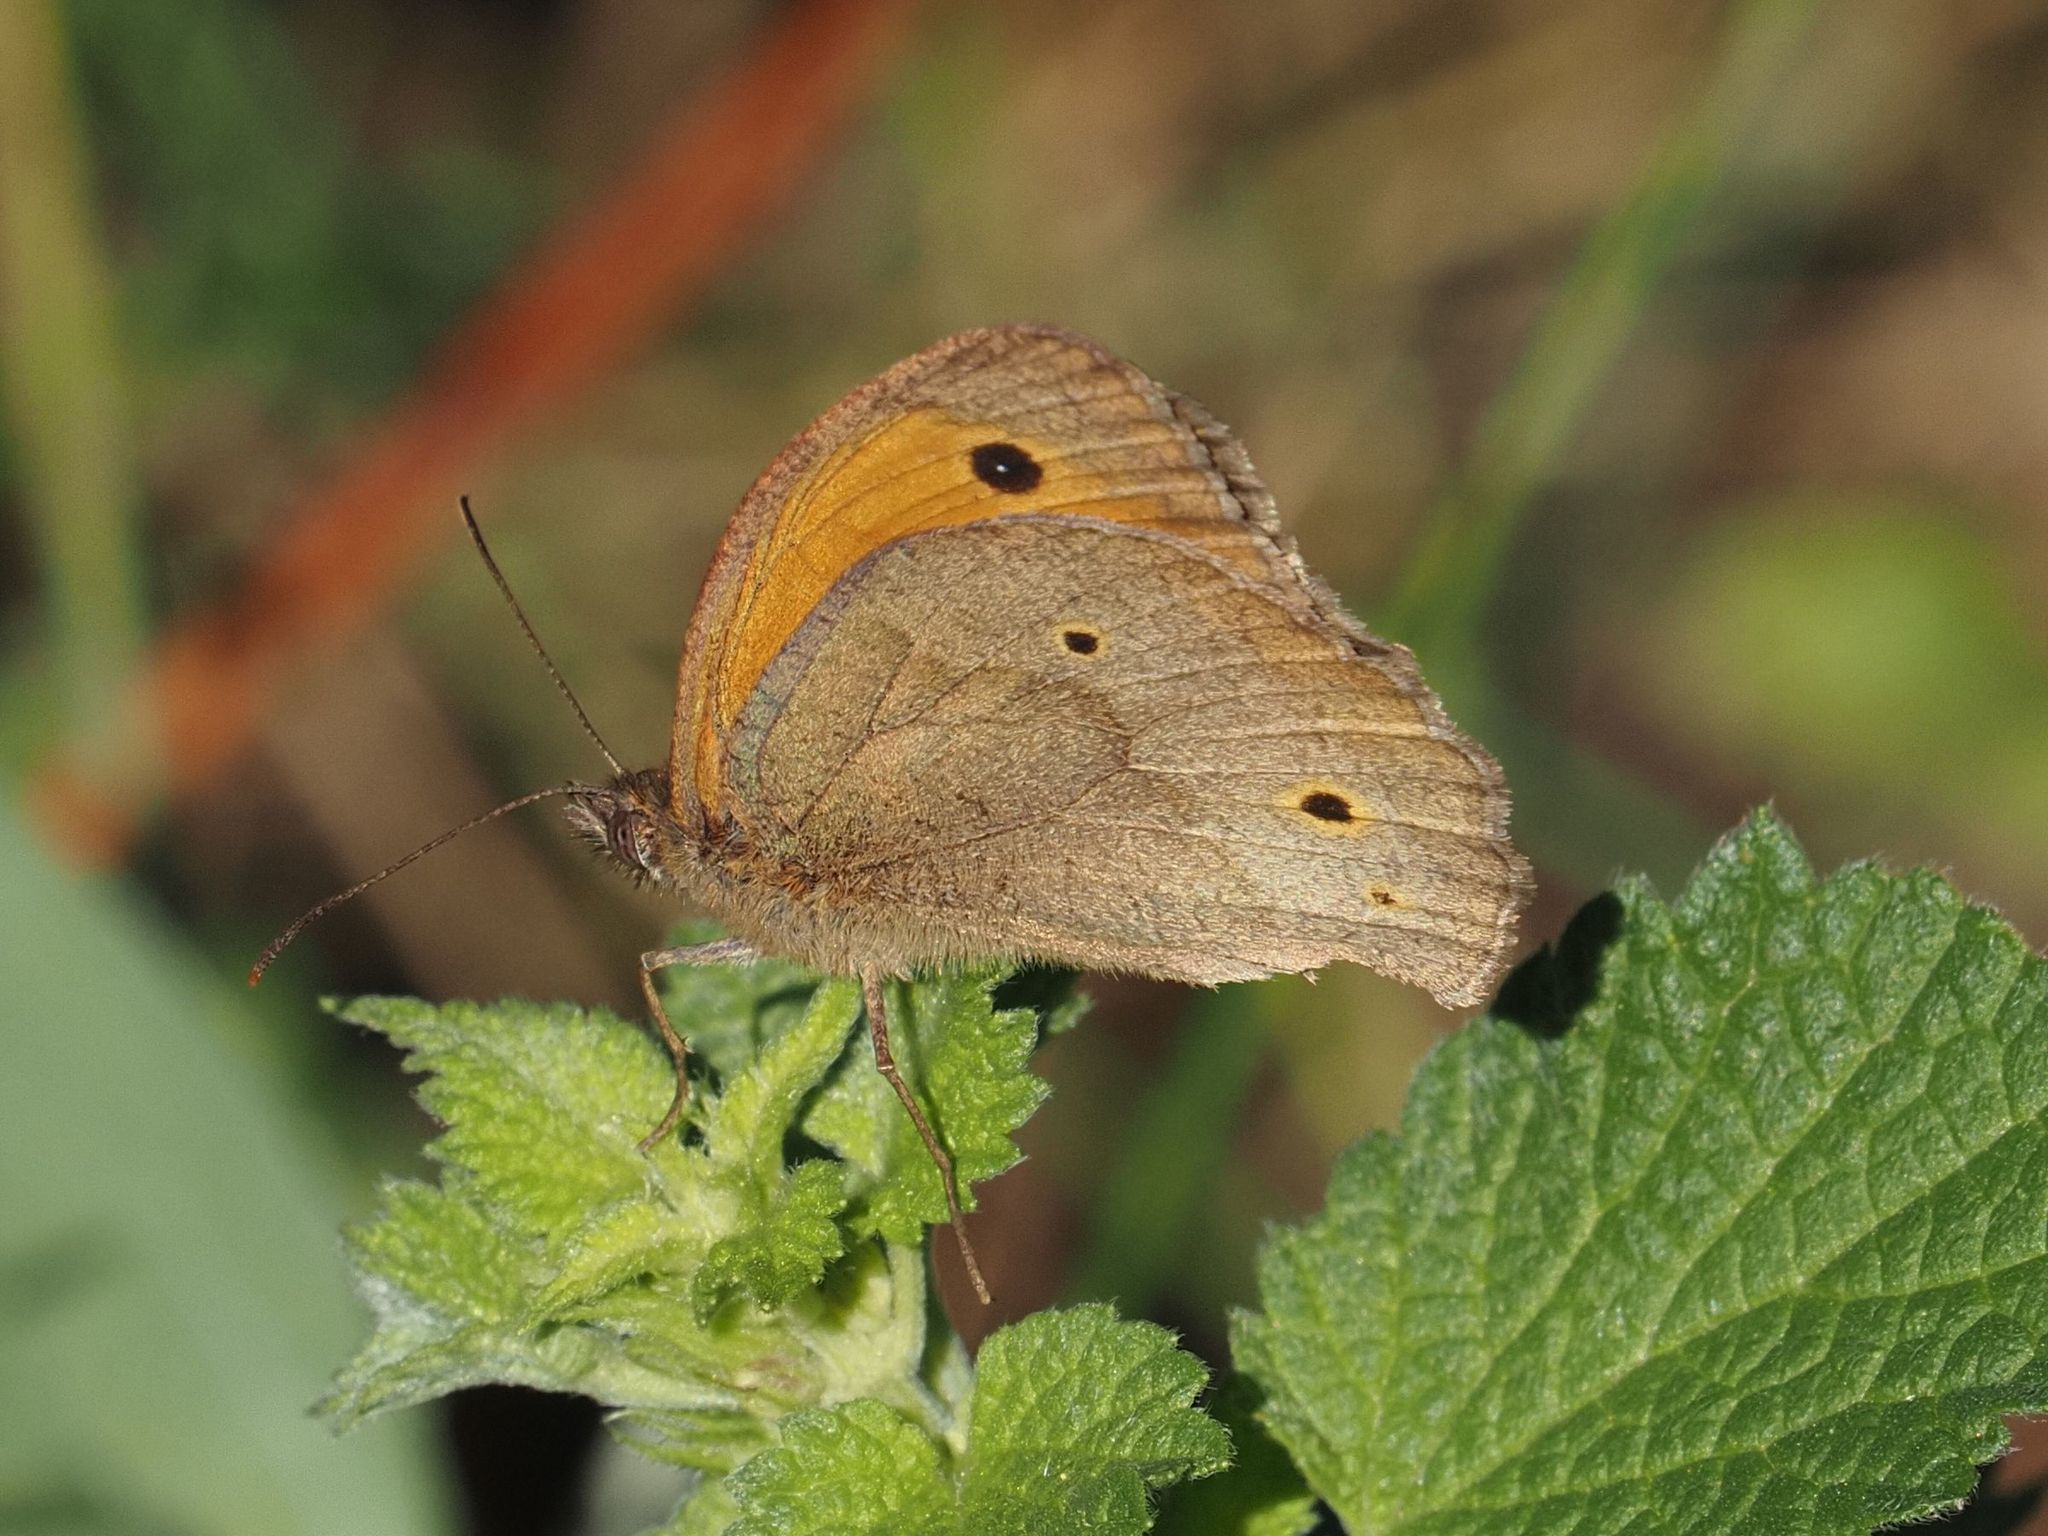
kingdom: Animalia
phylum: Arthropoda
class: Insecta
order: Lepidoptera
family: Nymphalidae
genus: Maniola
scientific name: Maniola jurtina
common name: Meadow brown
